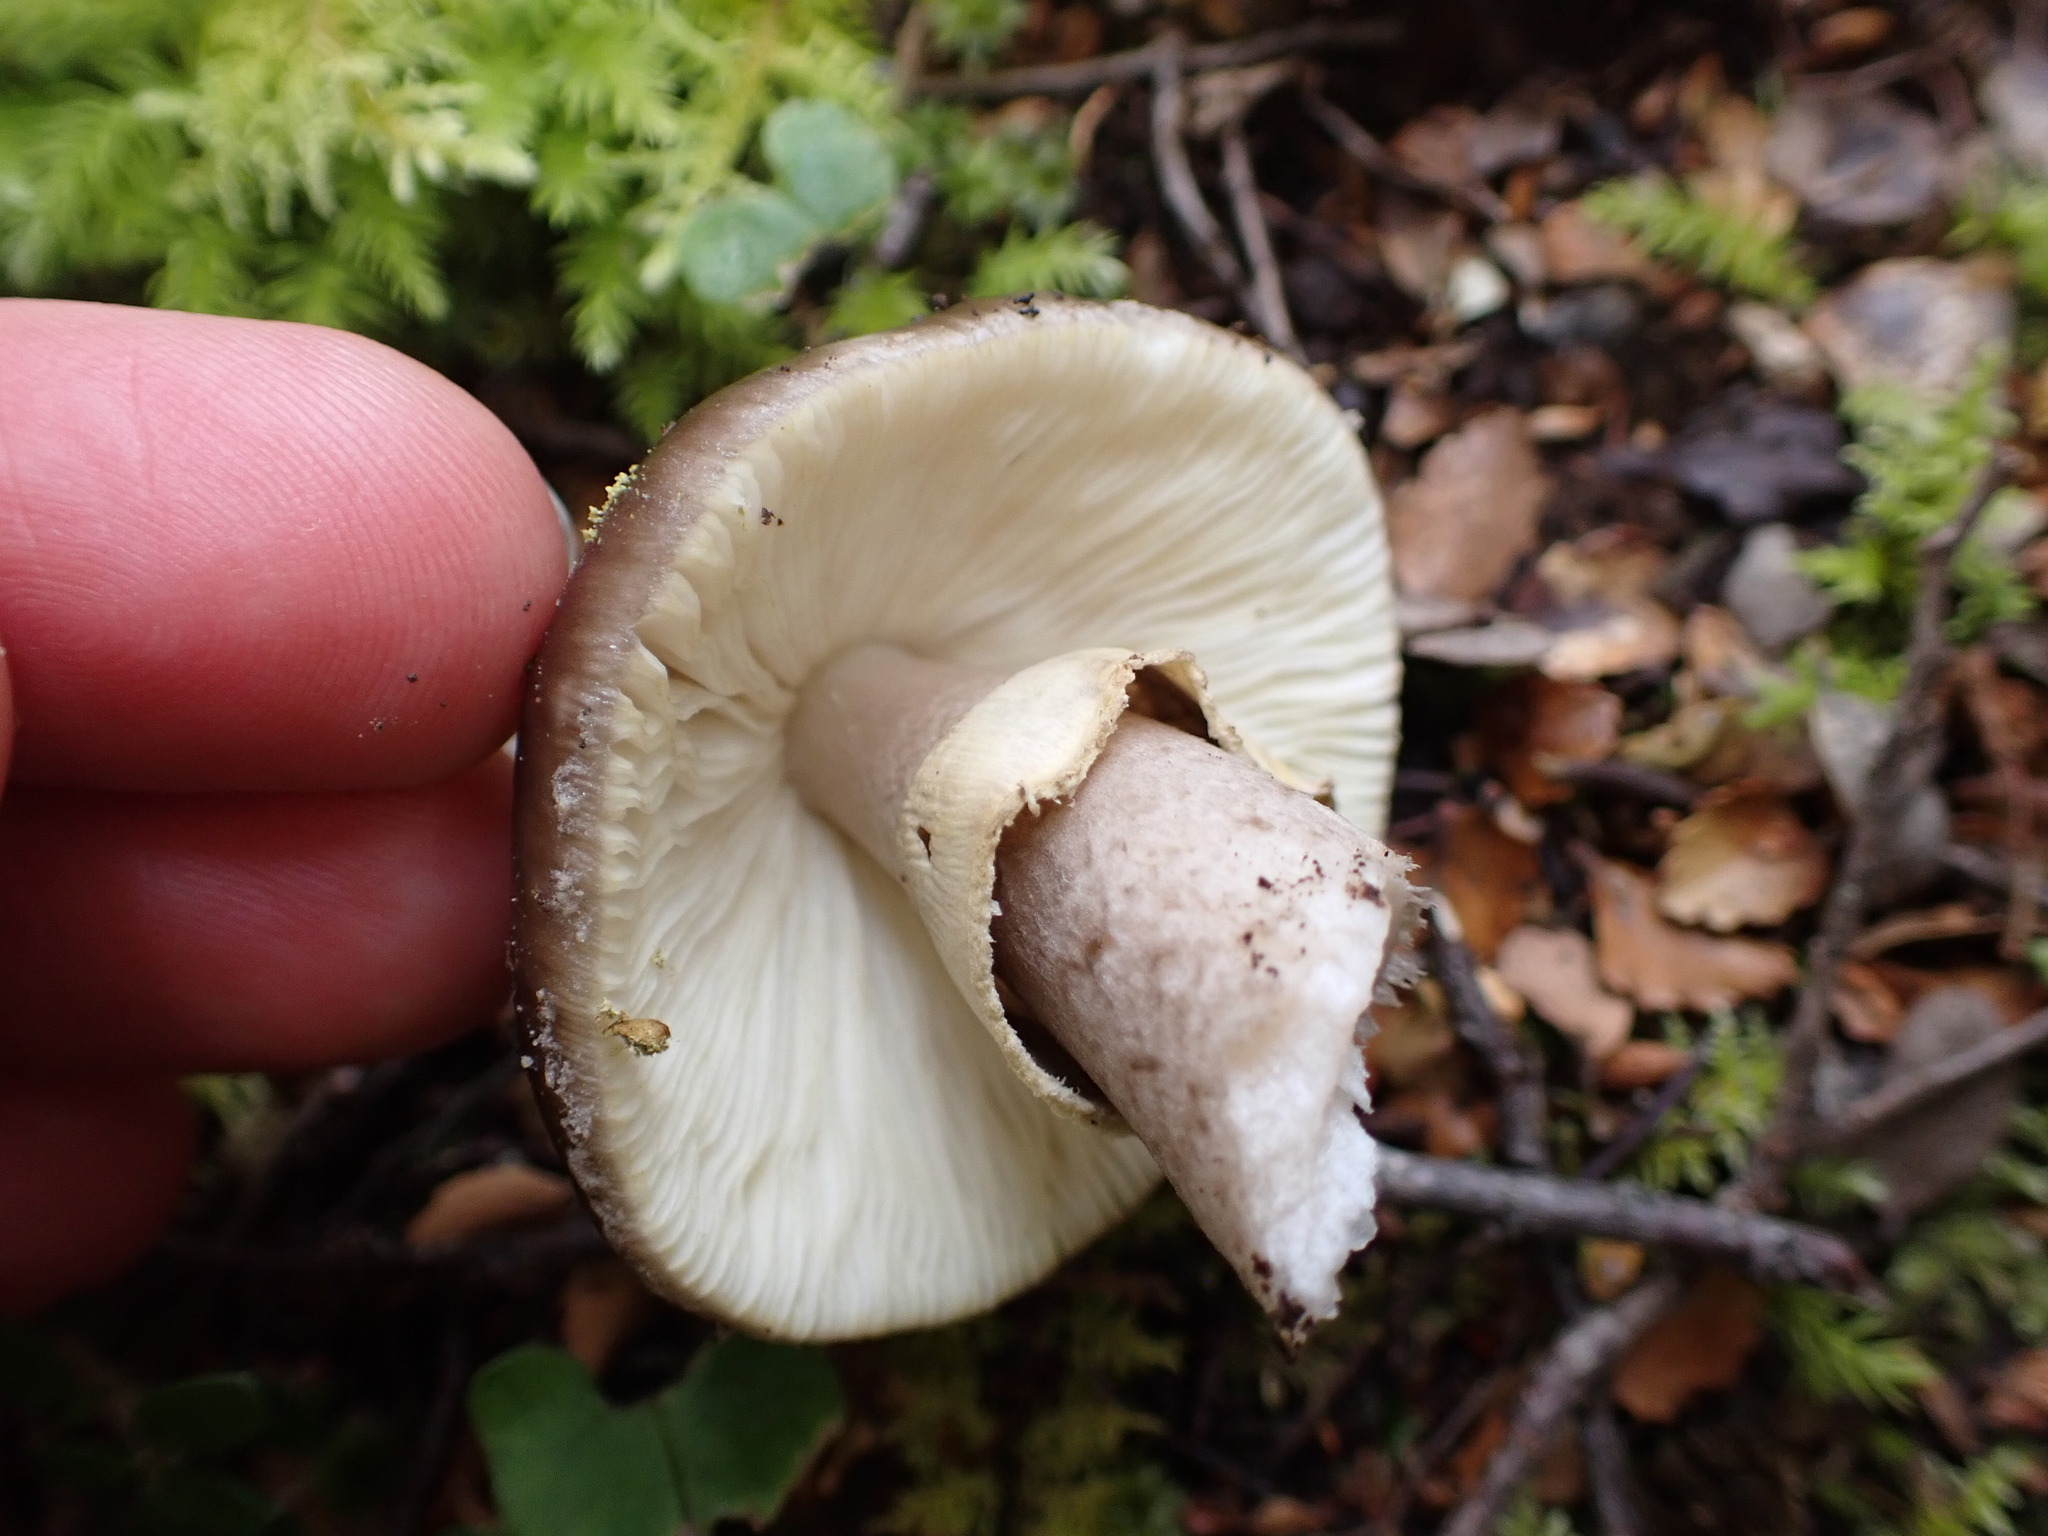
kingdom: Fungi
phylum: Basidiomycota
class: Agaricomycetes
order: Agaricales
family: Amanitaceae
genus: Amanita
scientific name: Amanita nothofagi
